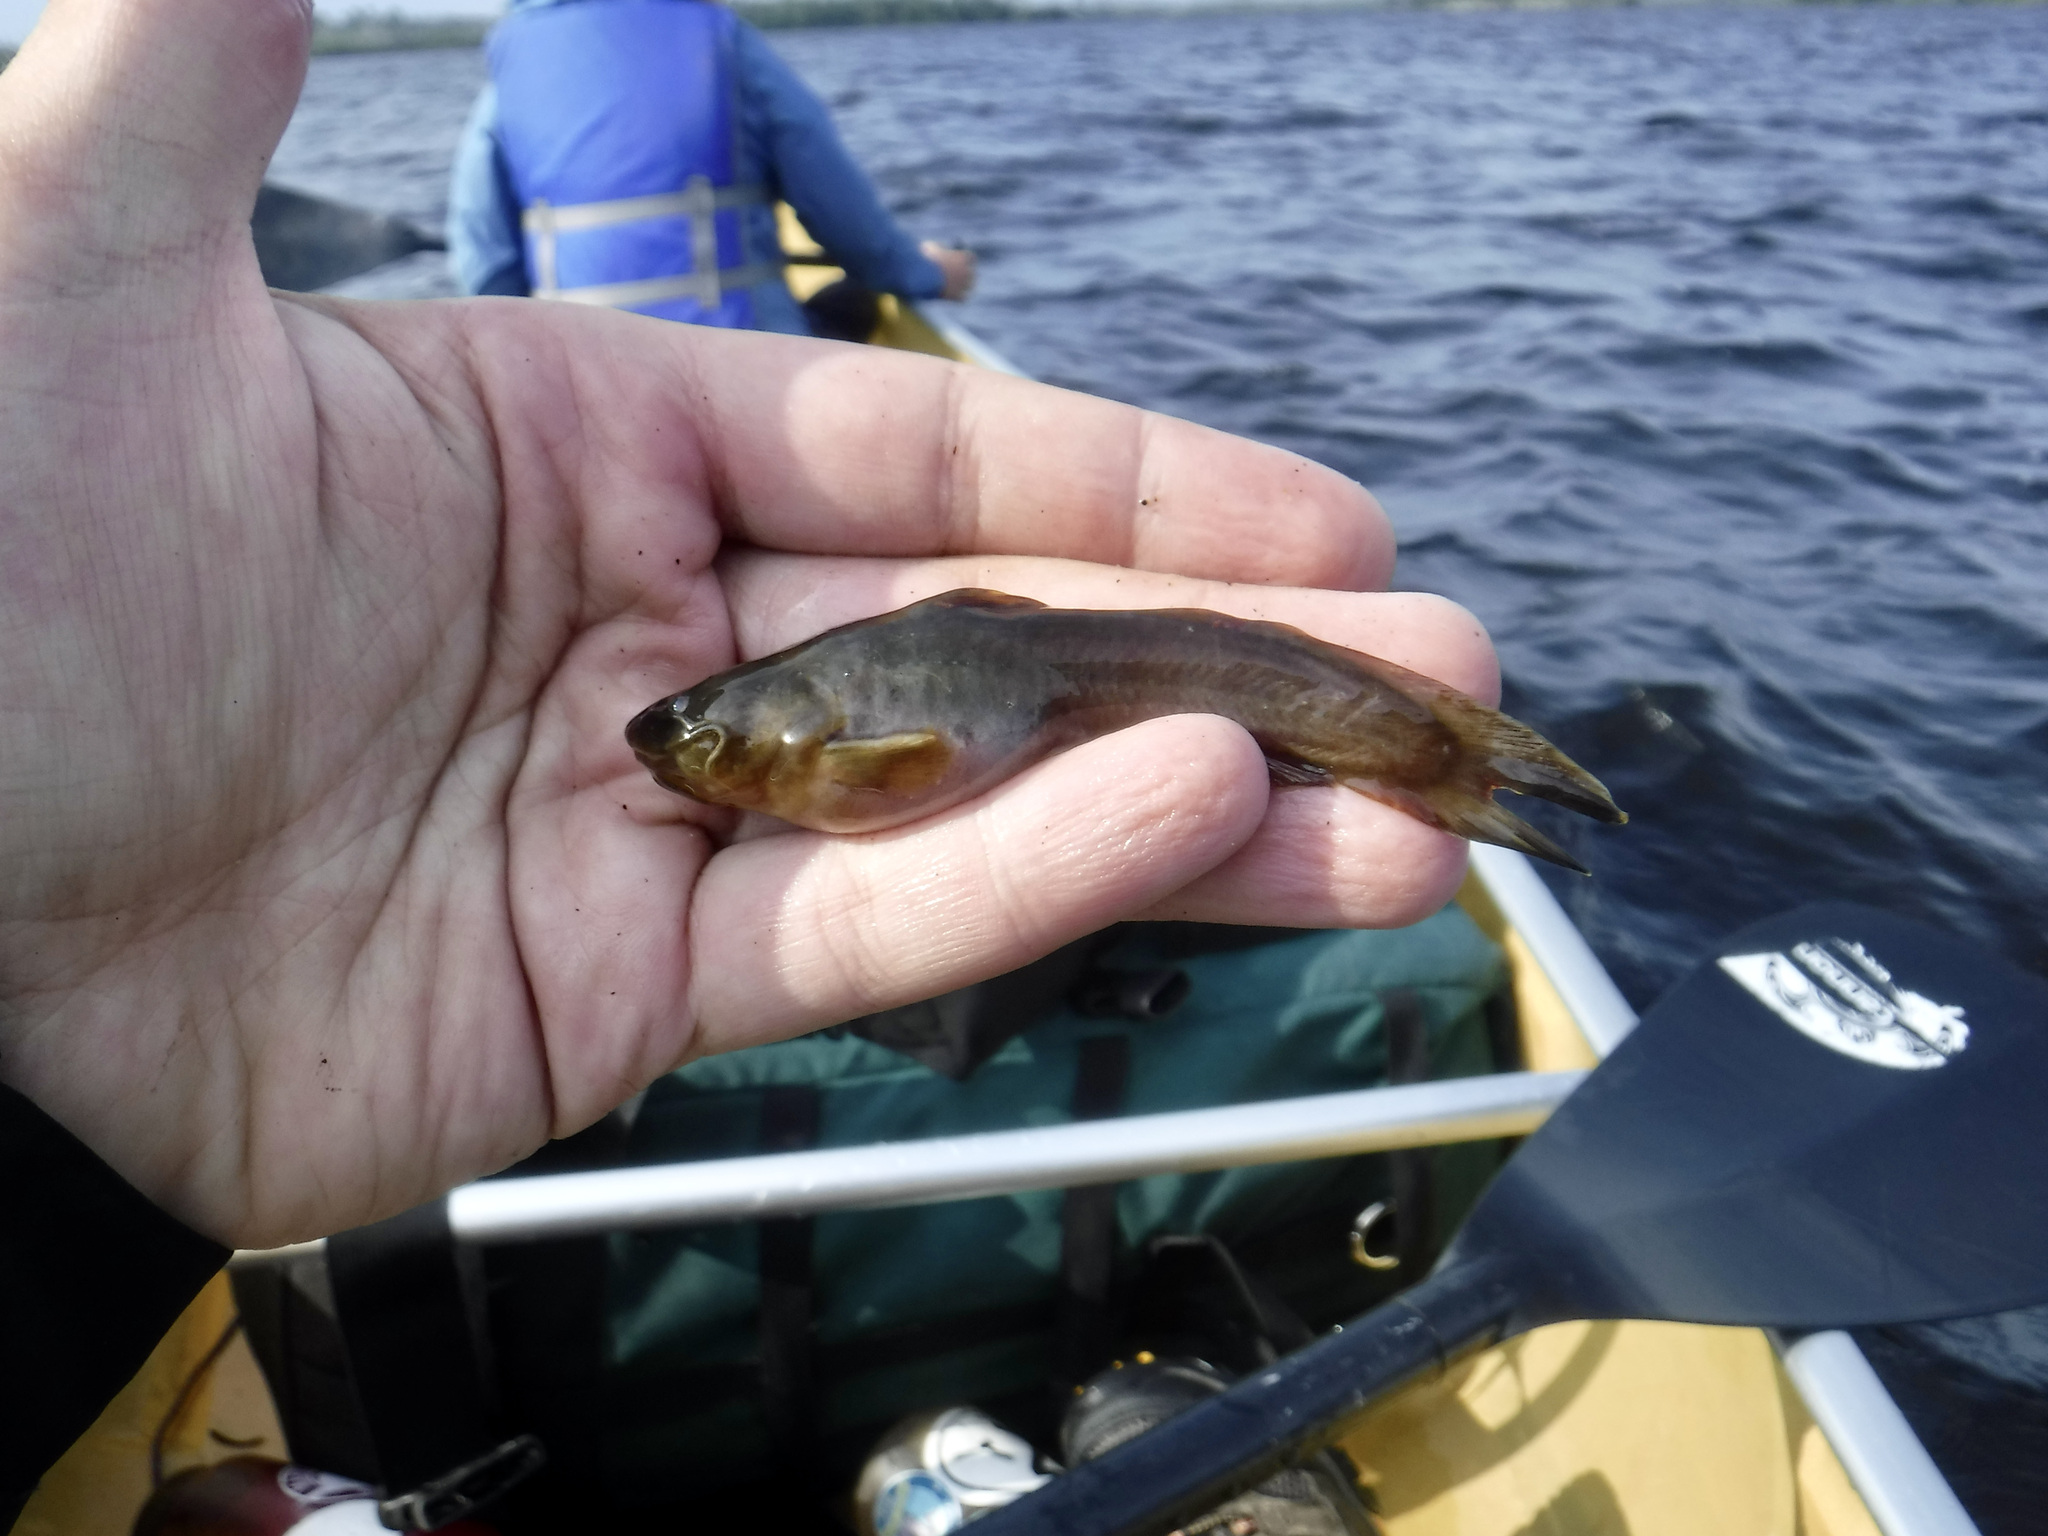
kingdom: Animalia
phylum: Chordata
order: Siluriformes
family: Ictaluridae
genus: Noturus
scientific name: Noturus gyrinus
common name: Tadpole madtom
